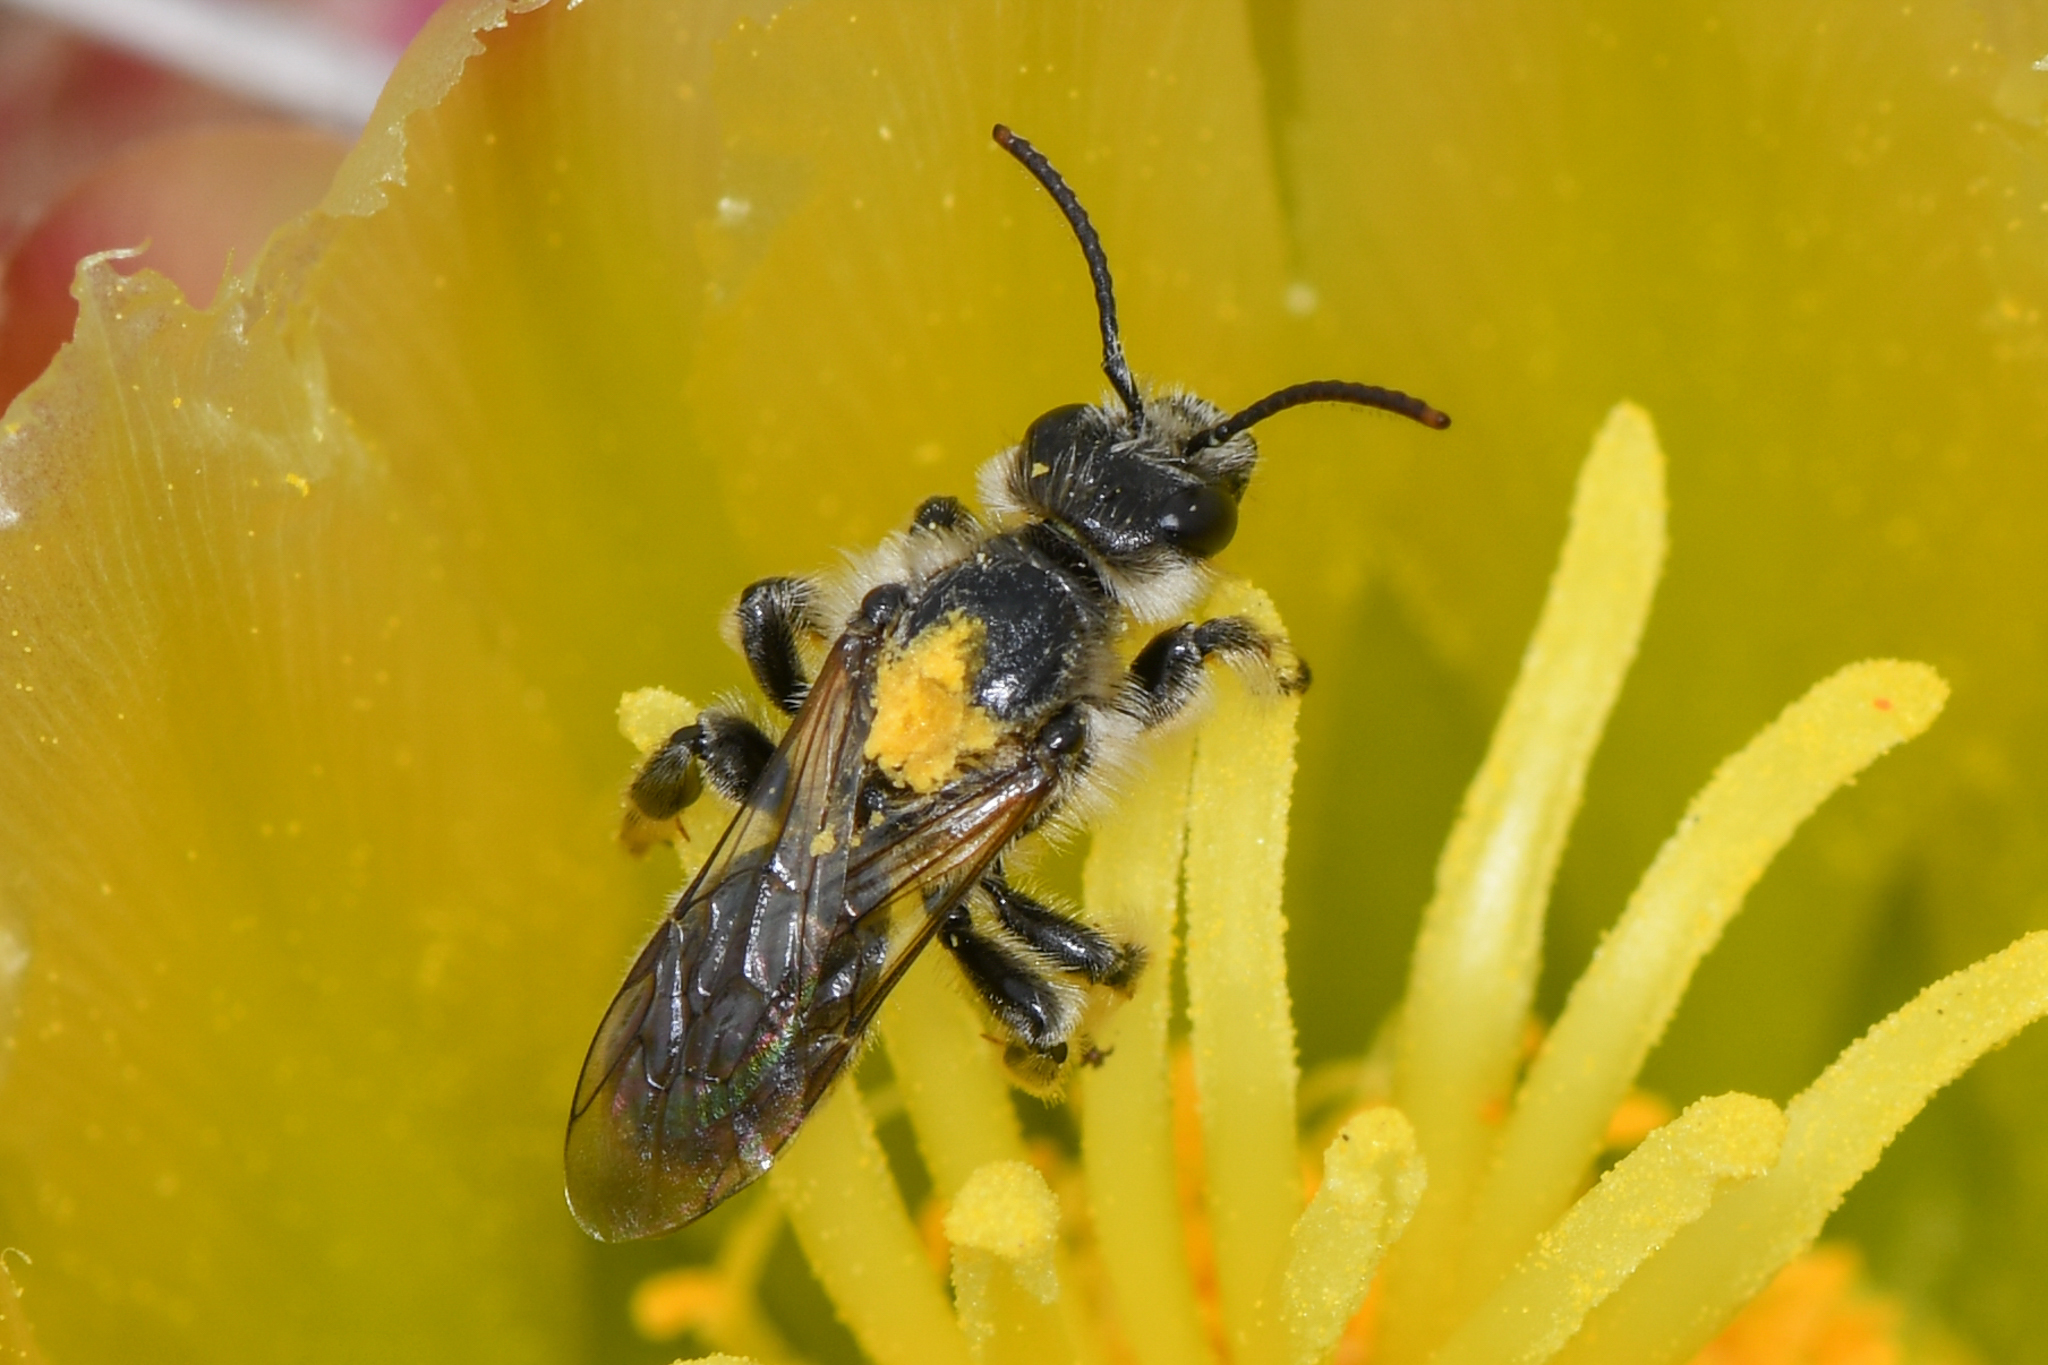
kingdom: Animalia
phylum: Arthropoda
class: Insecta
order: Hymenoptera
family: Halictidae
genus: Dufourea
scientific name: Dufourea echinocacti
